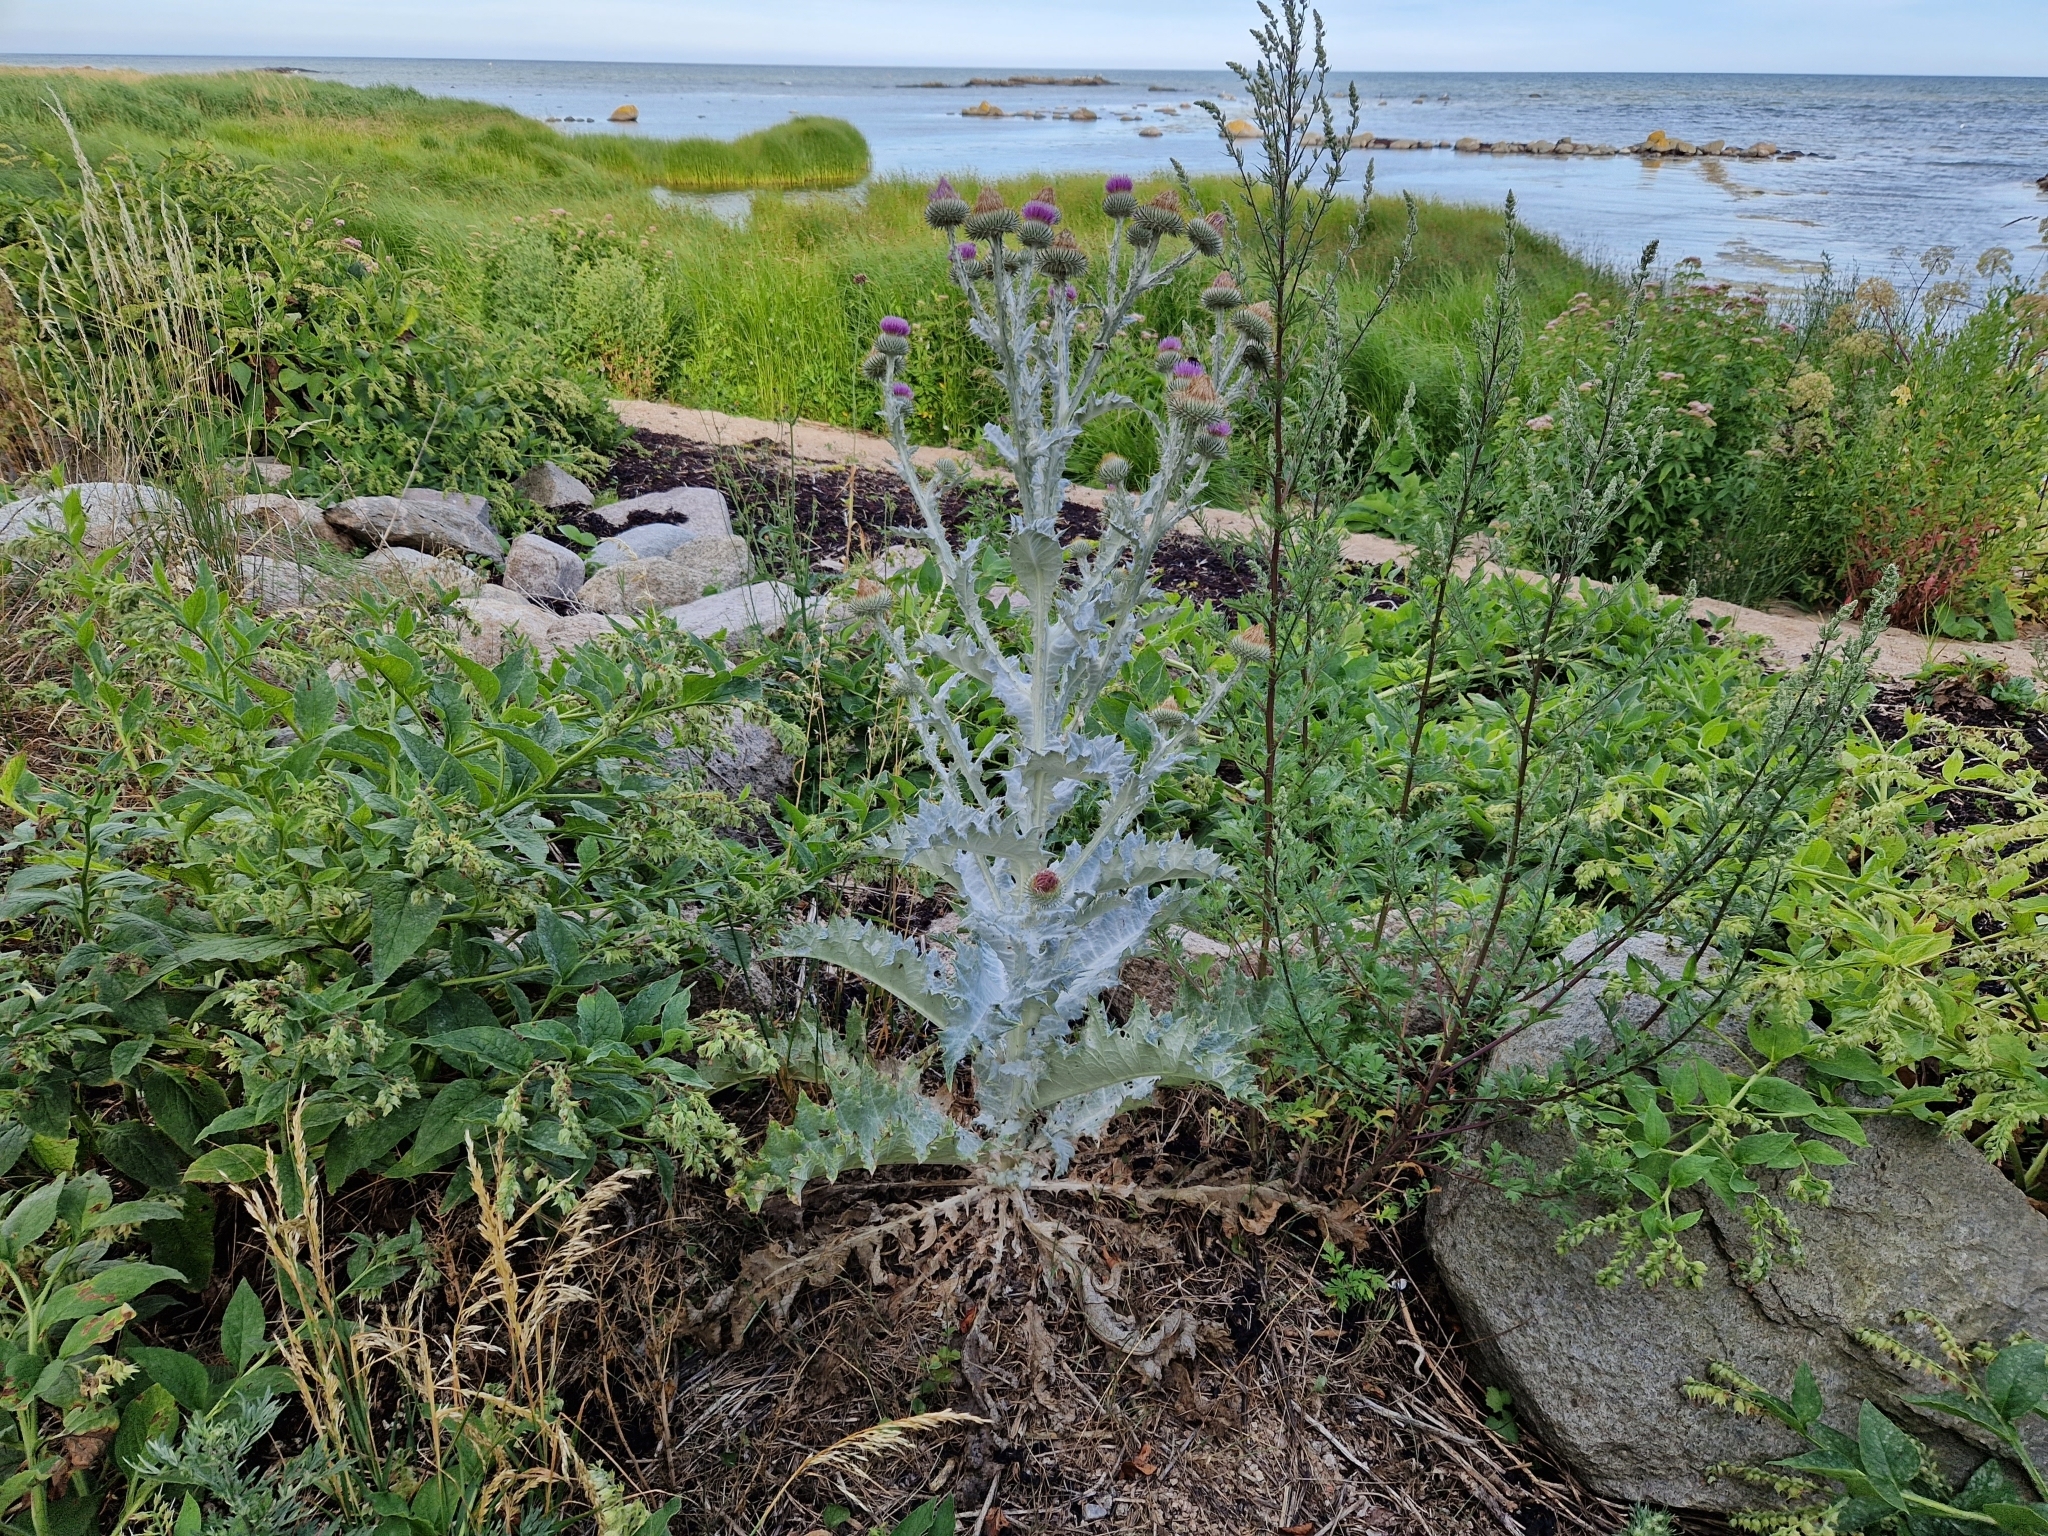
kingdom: Plantae
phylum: Tracheophyta
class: Magnoliopsida
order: Asterales
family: Asteraceae
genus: Onopordum
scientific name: Onopordum acanthium
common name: Scotch thistle
